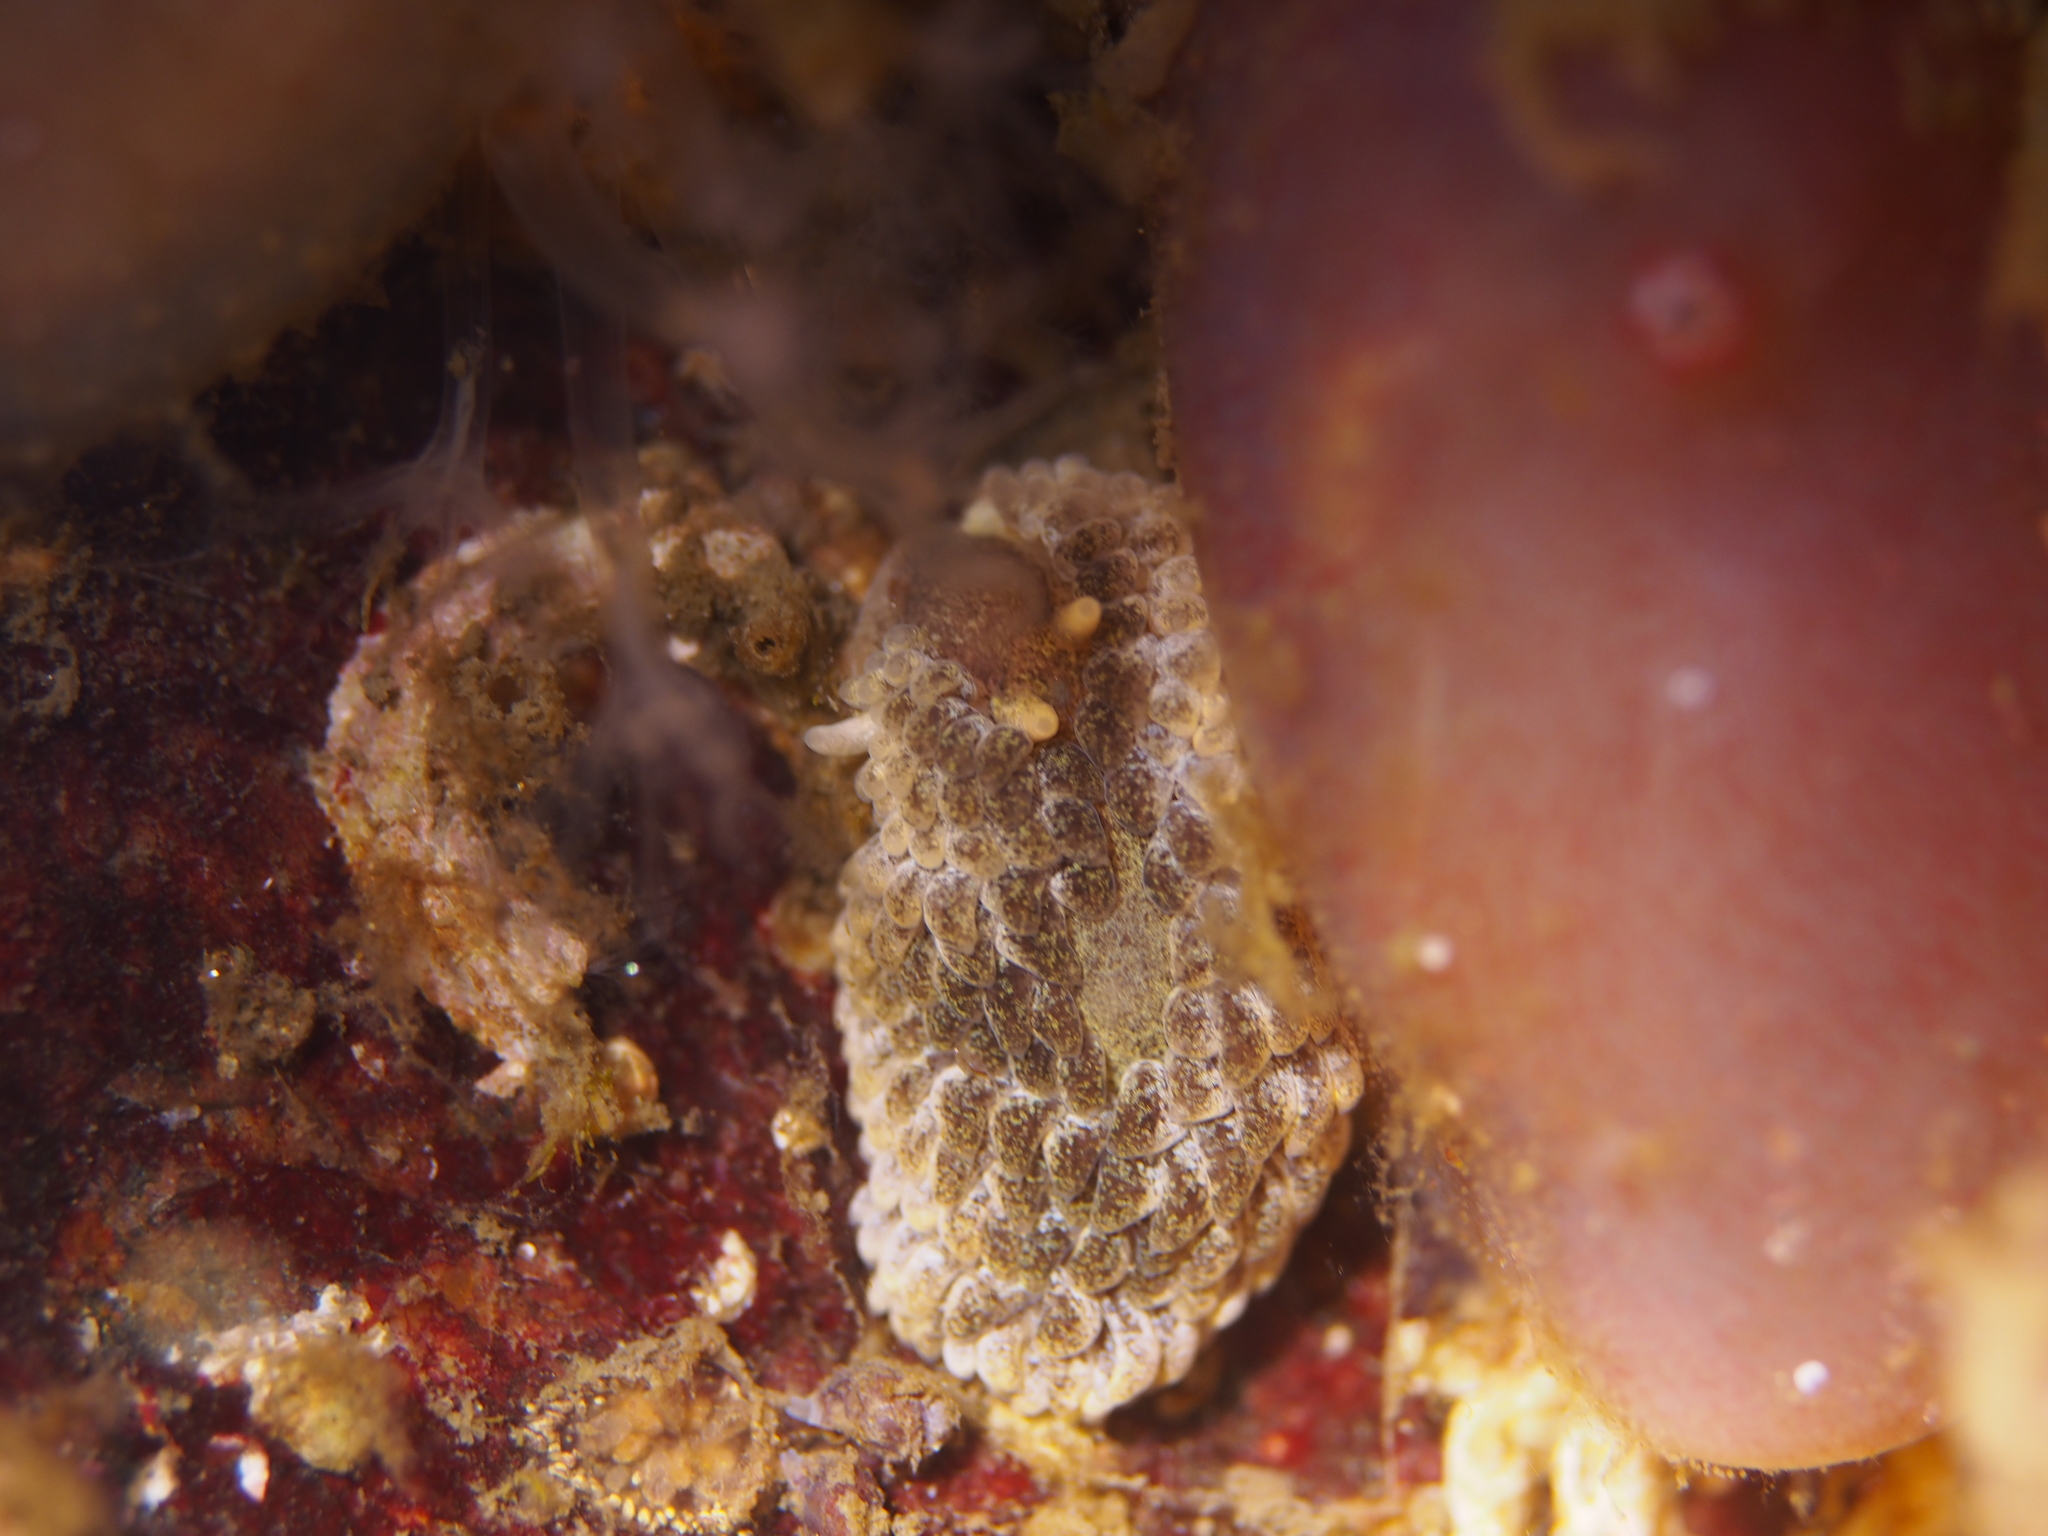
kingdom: Animalia
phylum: Mollusca
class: Gastropoda
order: Nudibranchia
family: Aeolidiidae
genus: Aeolidia
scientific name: Aeolidia papillosa
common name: Common grey sea slug
